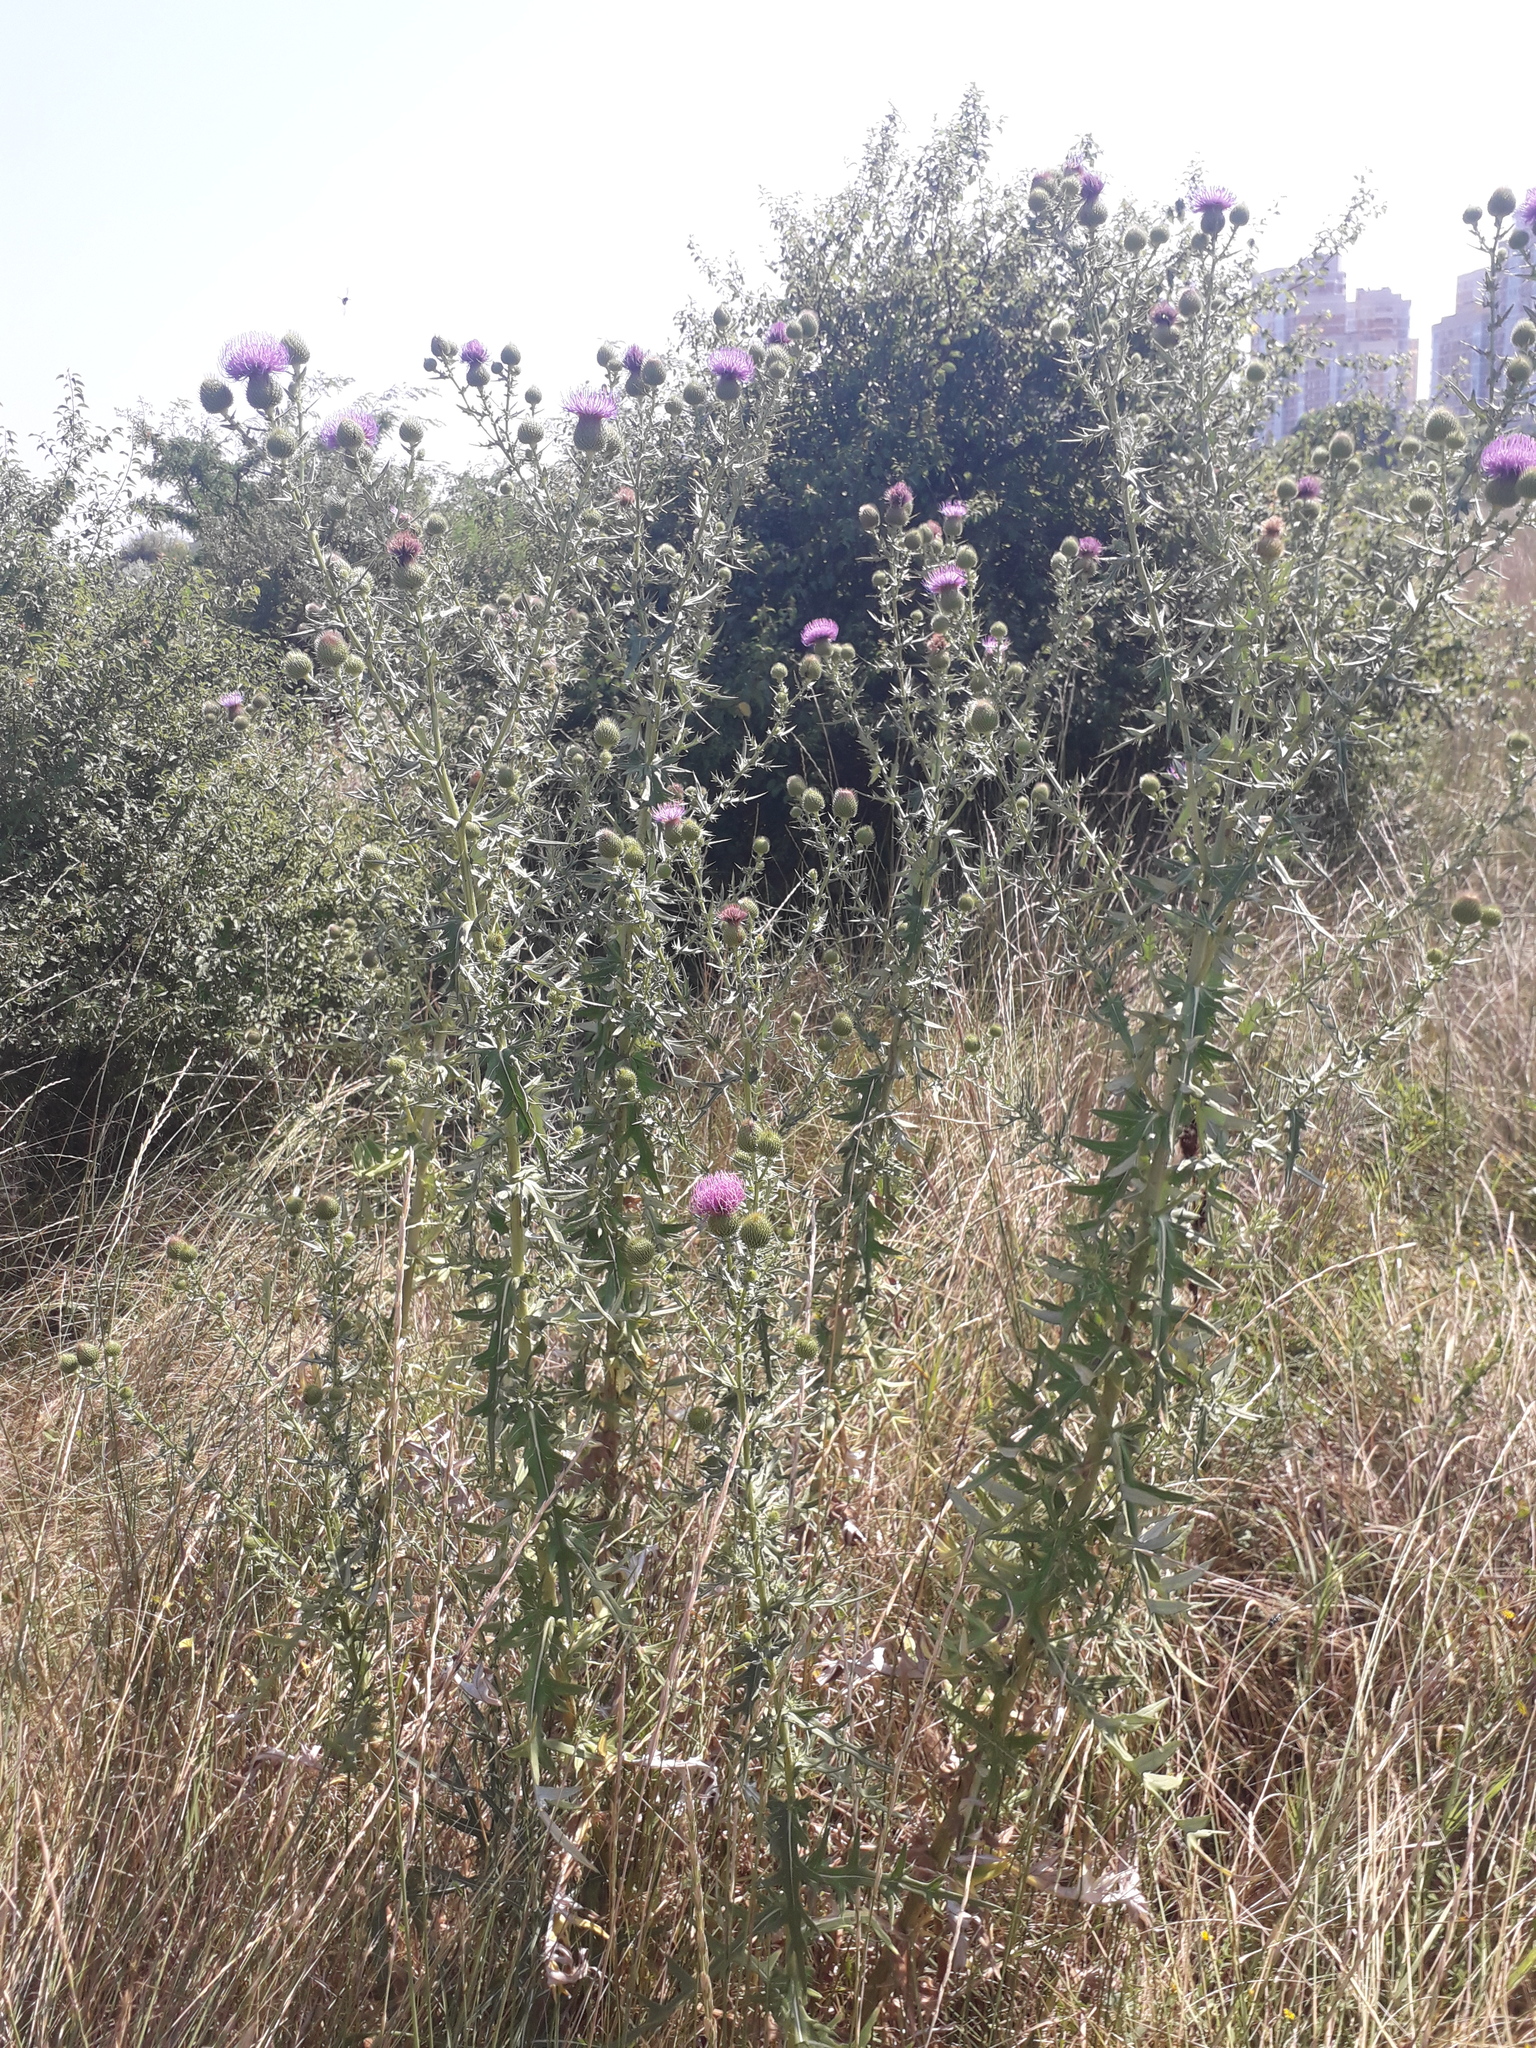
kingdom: Plantae
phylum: Tracheophyta
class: Magnoliopsida
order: Asterales
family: Asteraceae
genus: Lophiolepis
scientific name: Lophiolepis ciliata
